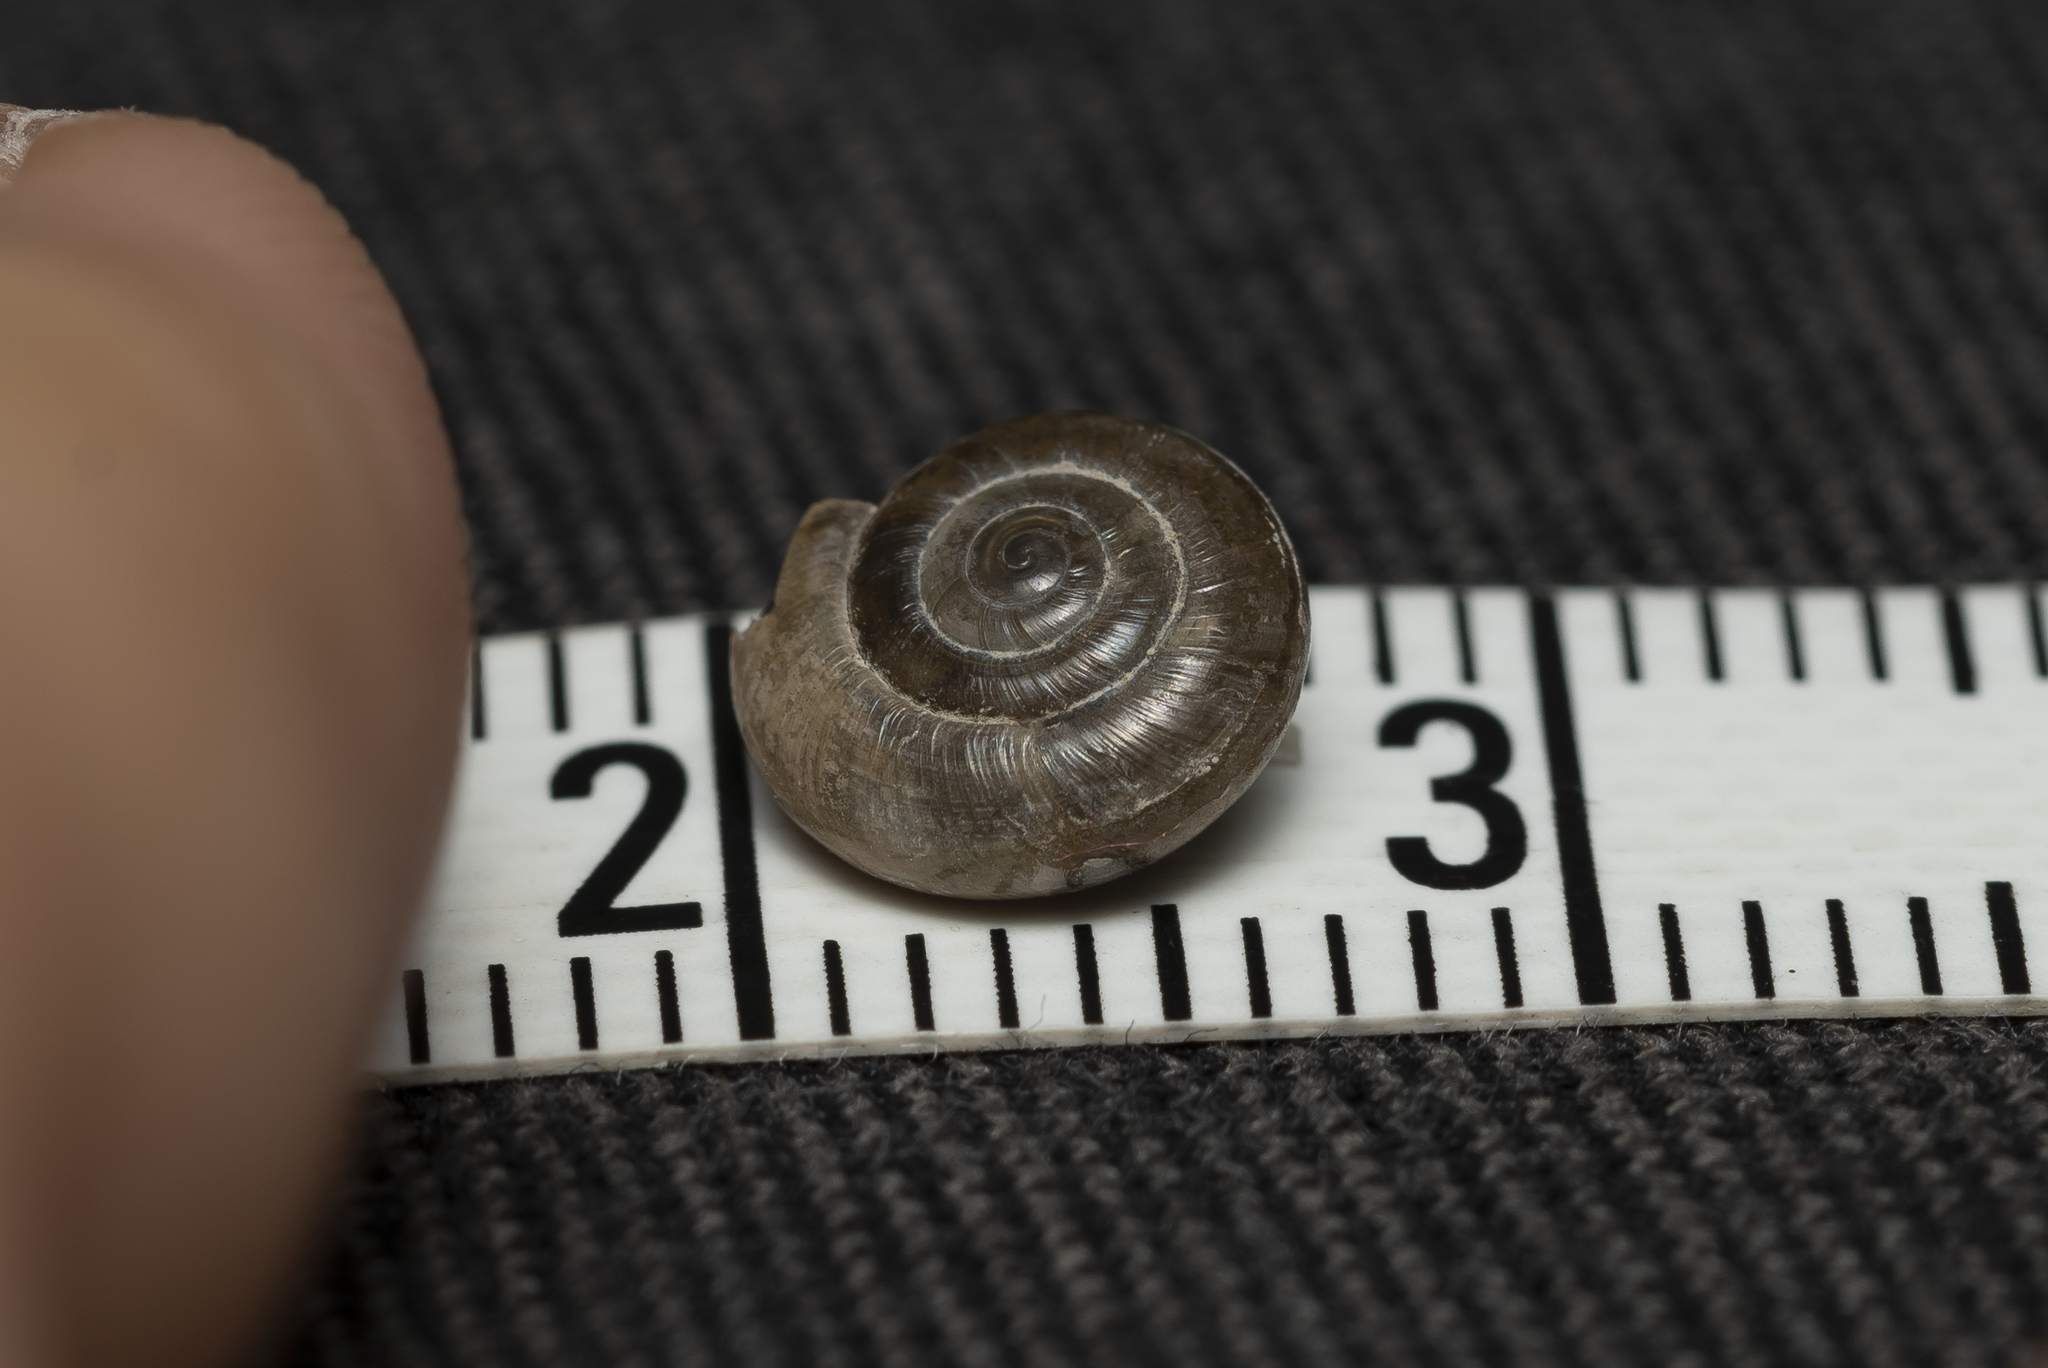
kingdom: Animalia
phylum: Mollusca
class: Gastropoda
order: Stylommatophora
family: Oxychilidae
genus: Oxychilus
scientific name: Oxychilus cyprius
